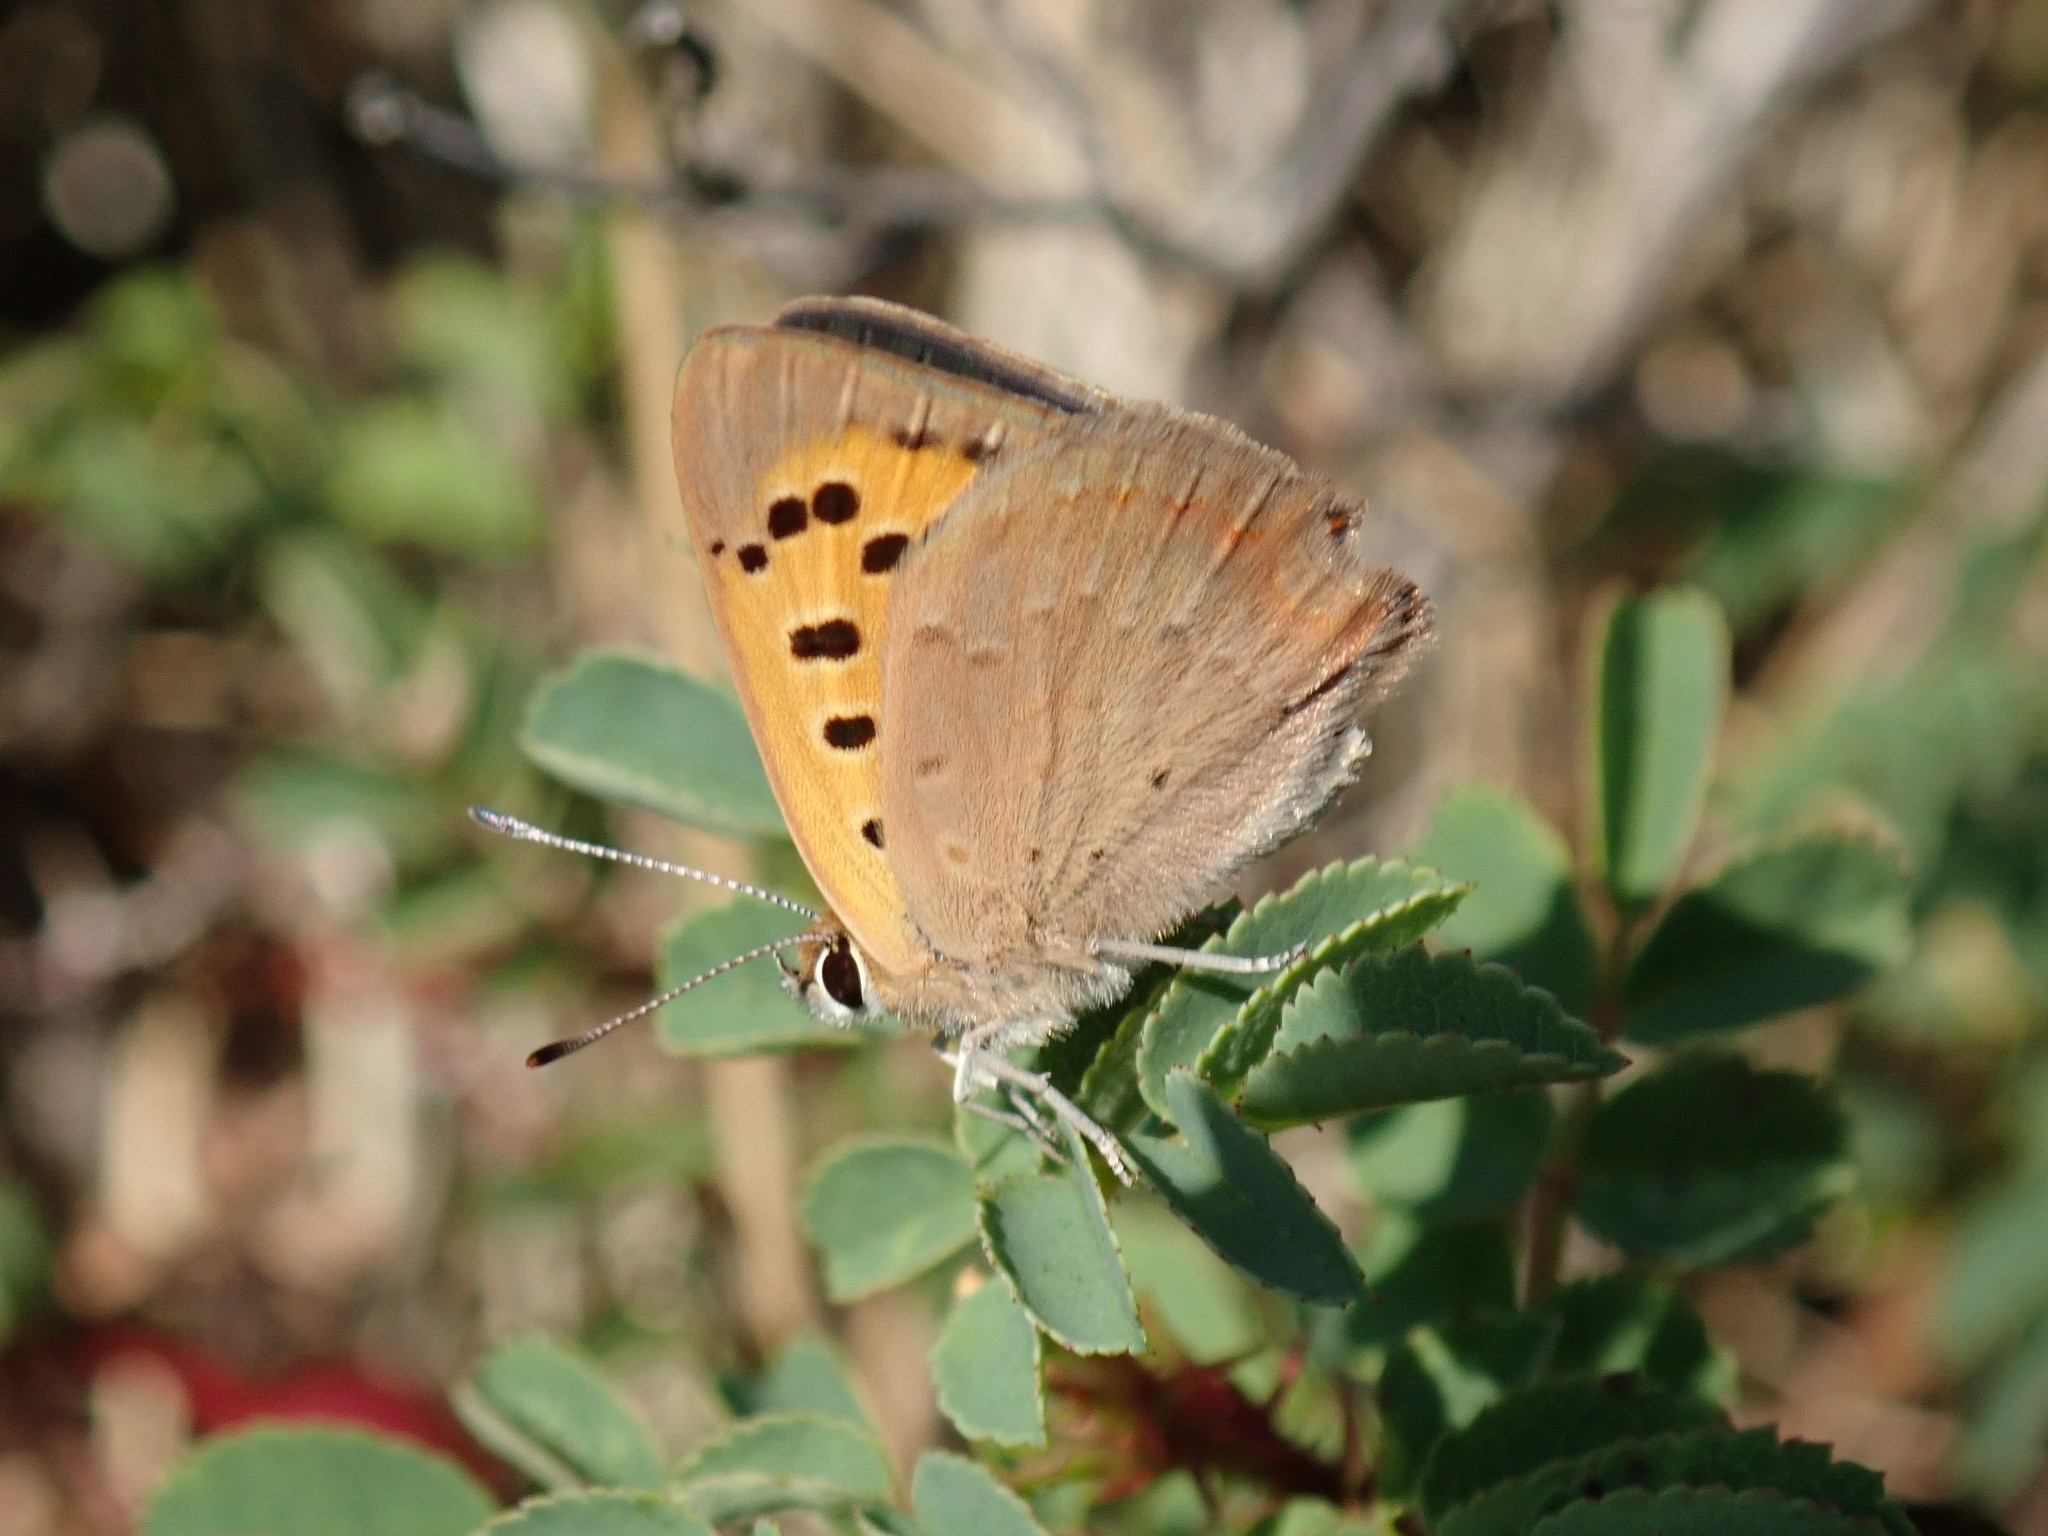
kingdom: Animalia
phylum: Arthropoda
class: Insecta
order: Lepidoptera
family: Lycaenidae
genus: Lycaena
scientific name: Lycaena phlaeas
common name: Small copper
